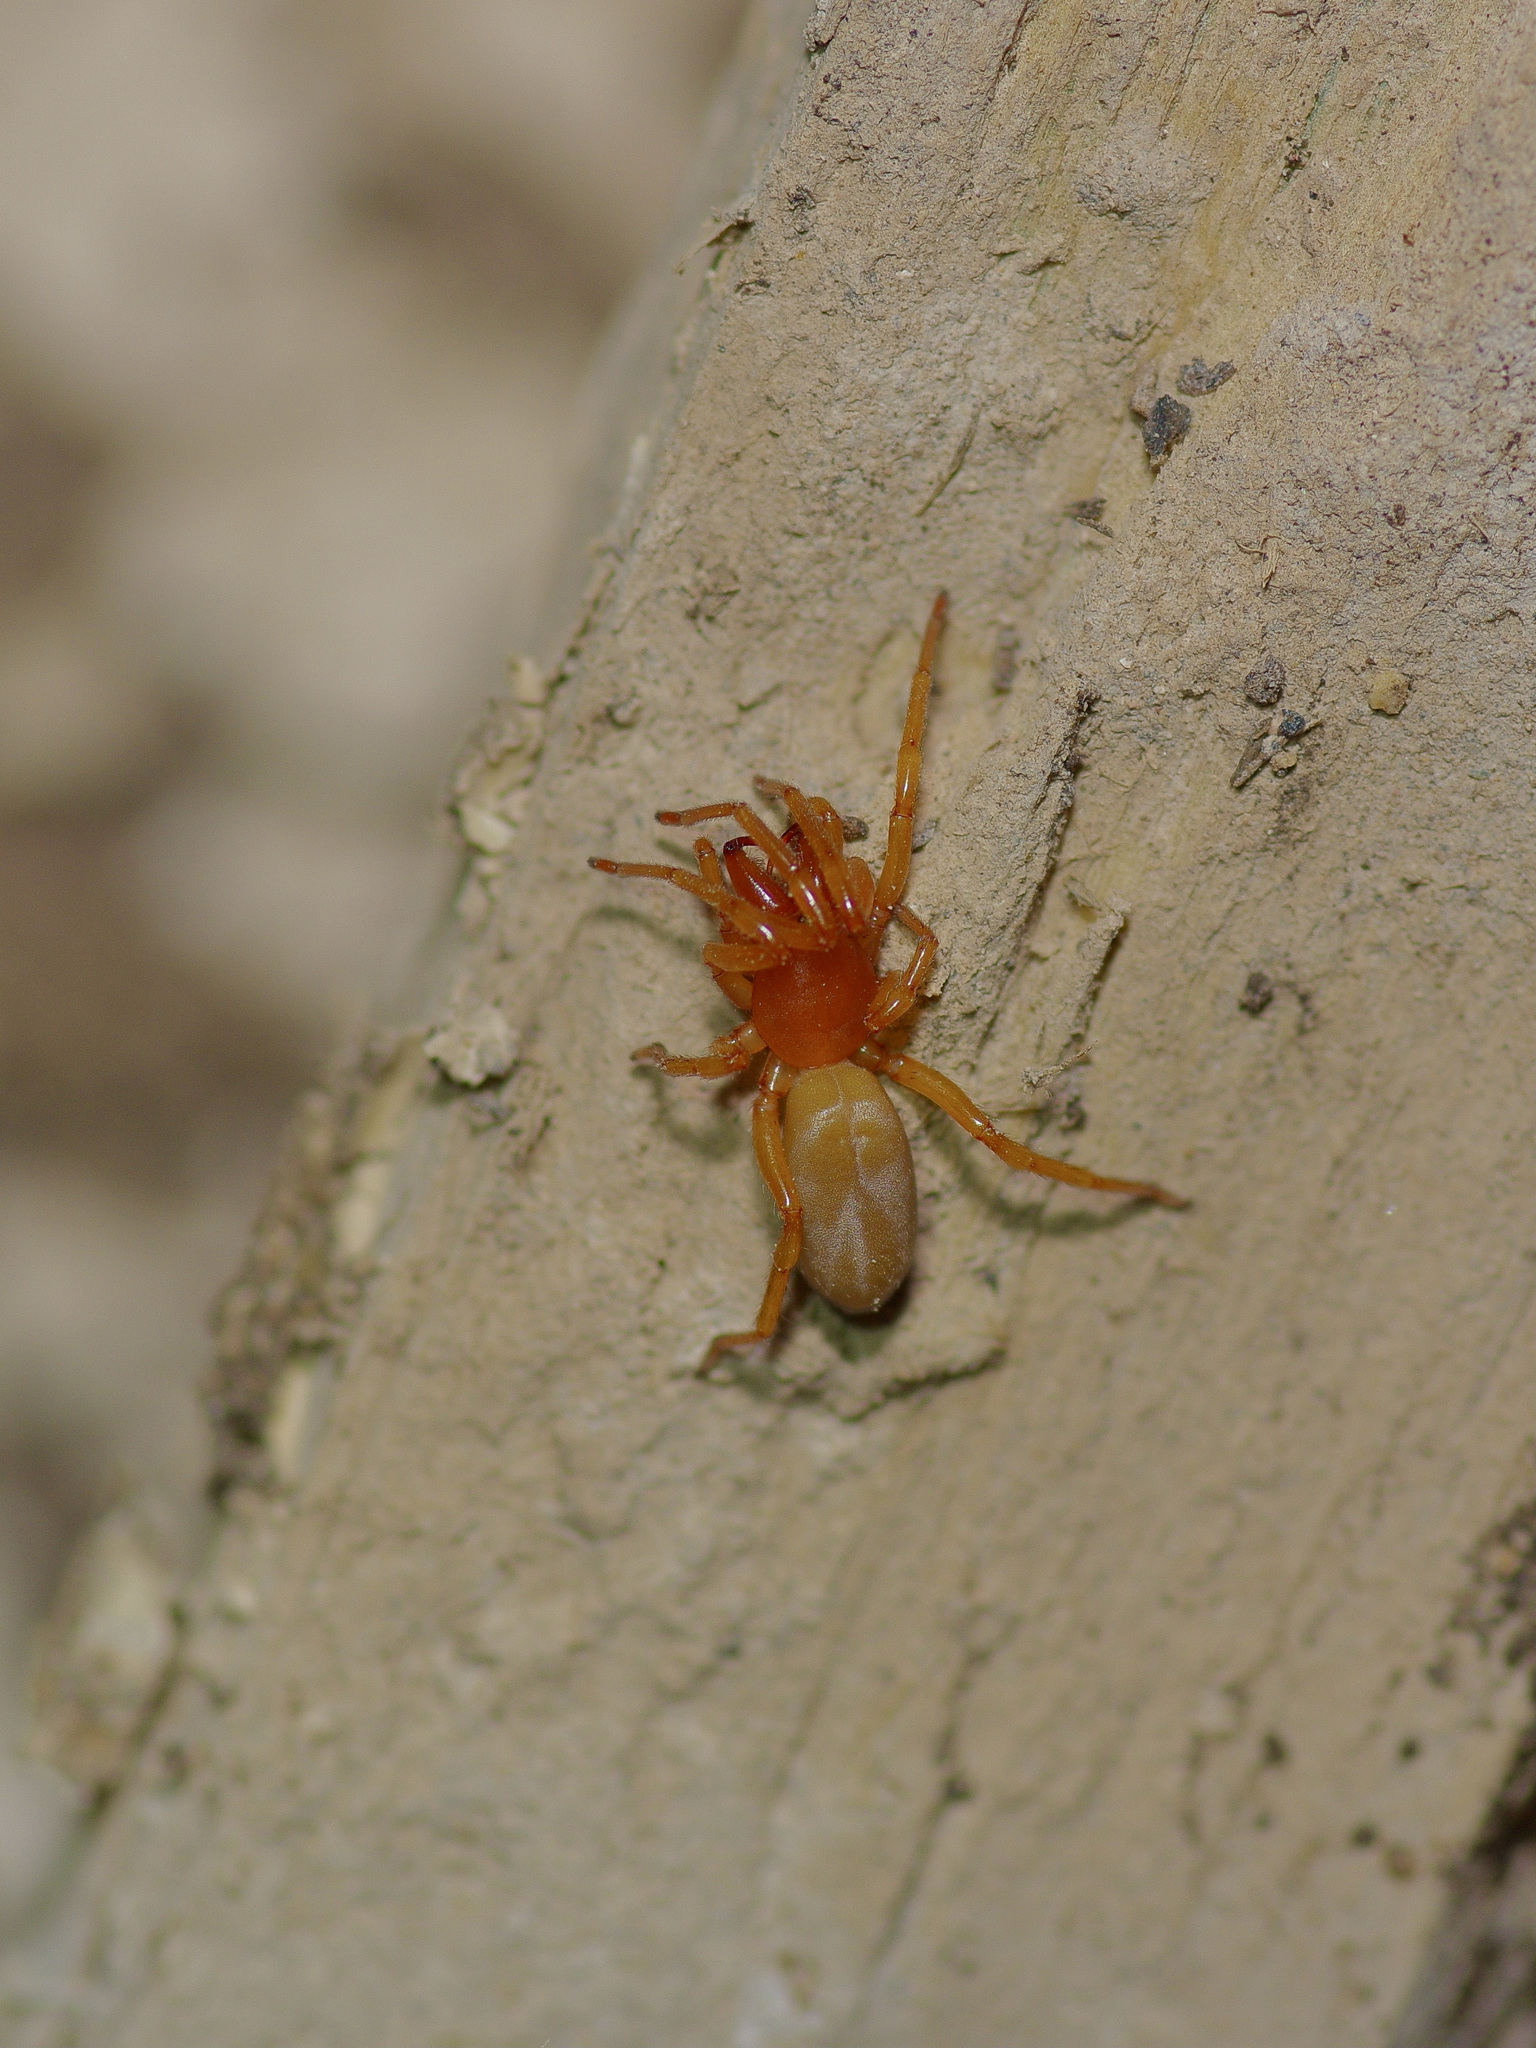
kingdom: Animalia
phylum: Arthropoda
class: Arachnida
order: Araneae
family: Dysderidae
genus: Dysdera
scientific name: Dysdera crocata
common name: Woodlouse spider
